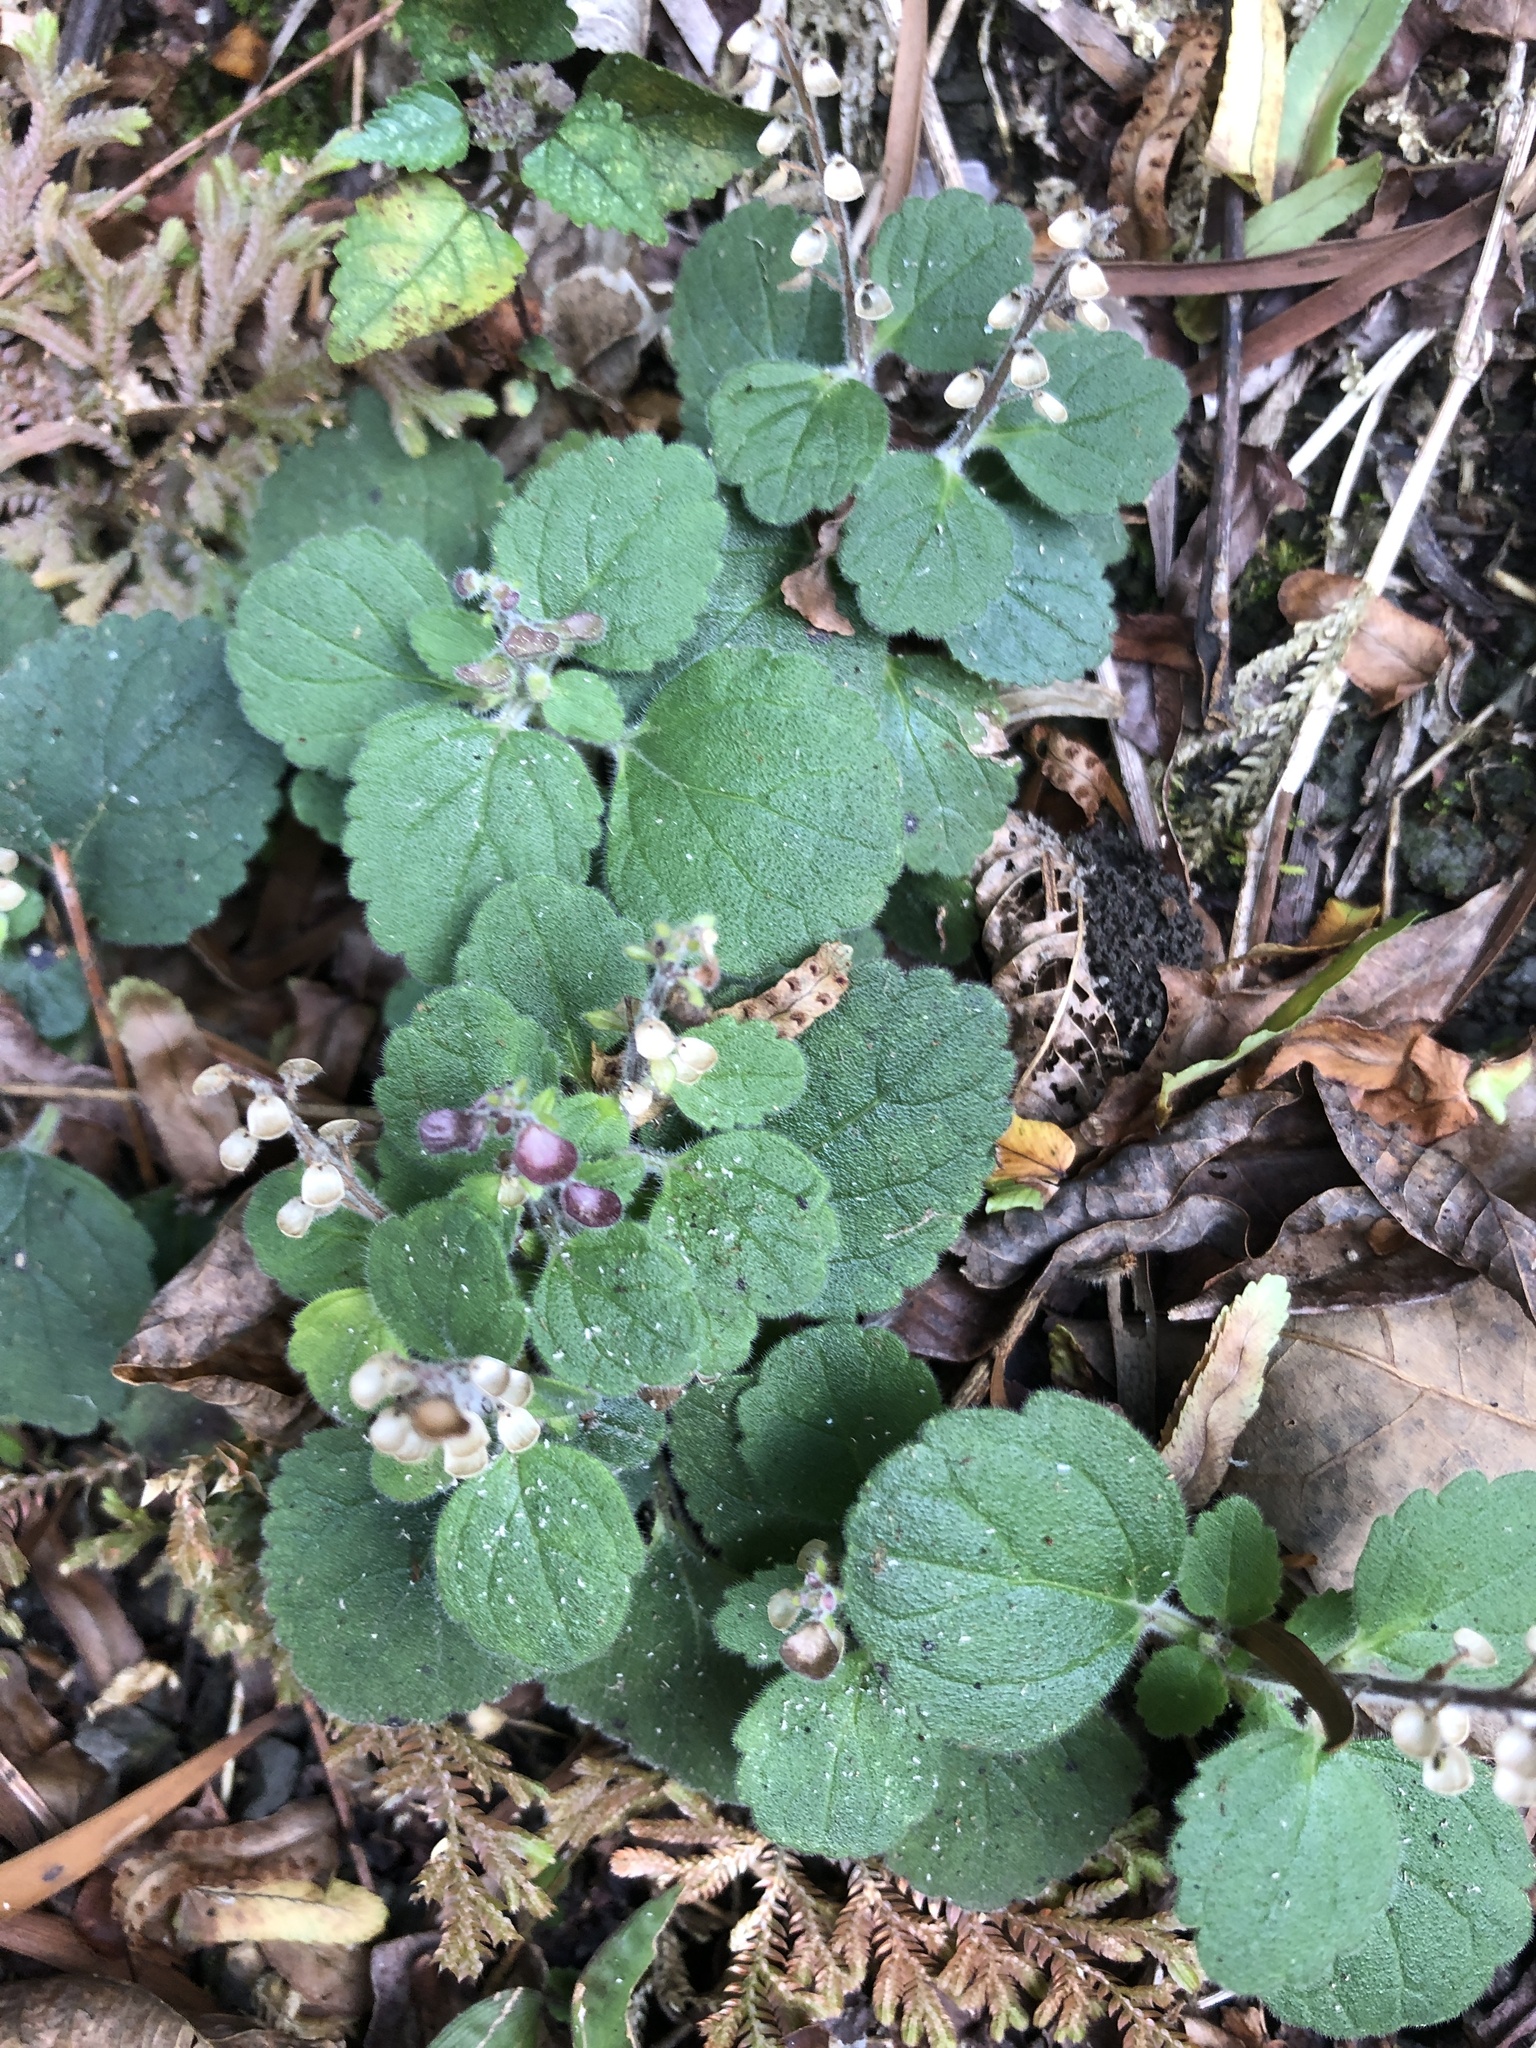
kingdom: Plantae
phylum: Tracheophyta
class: Magnoliopsida
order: Lamiales
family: Lamiaceae
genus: Scutellaria
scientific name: Scutellaria indica
